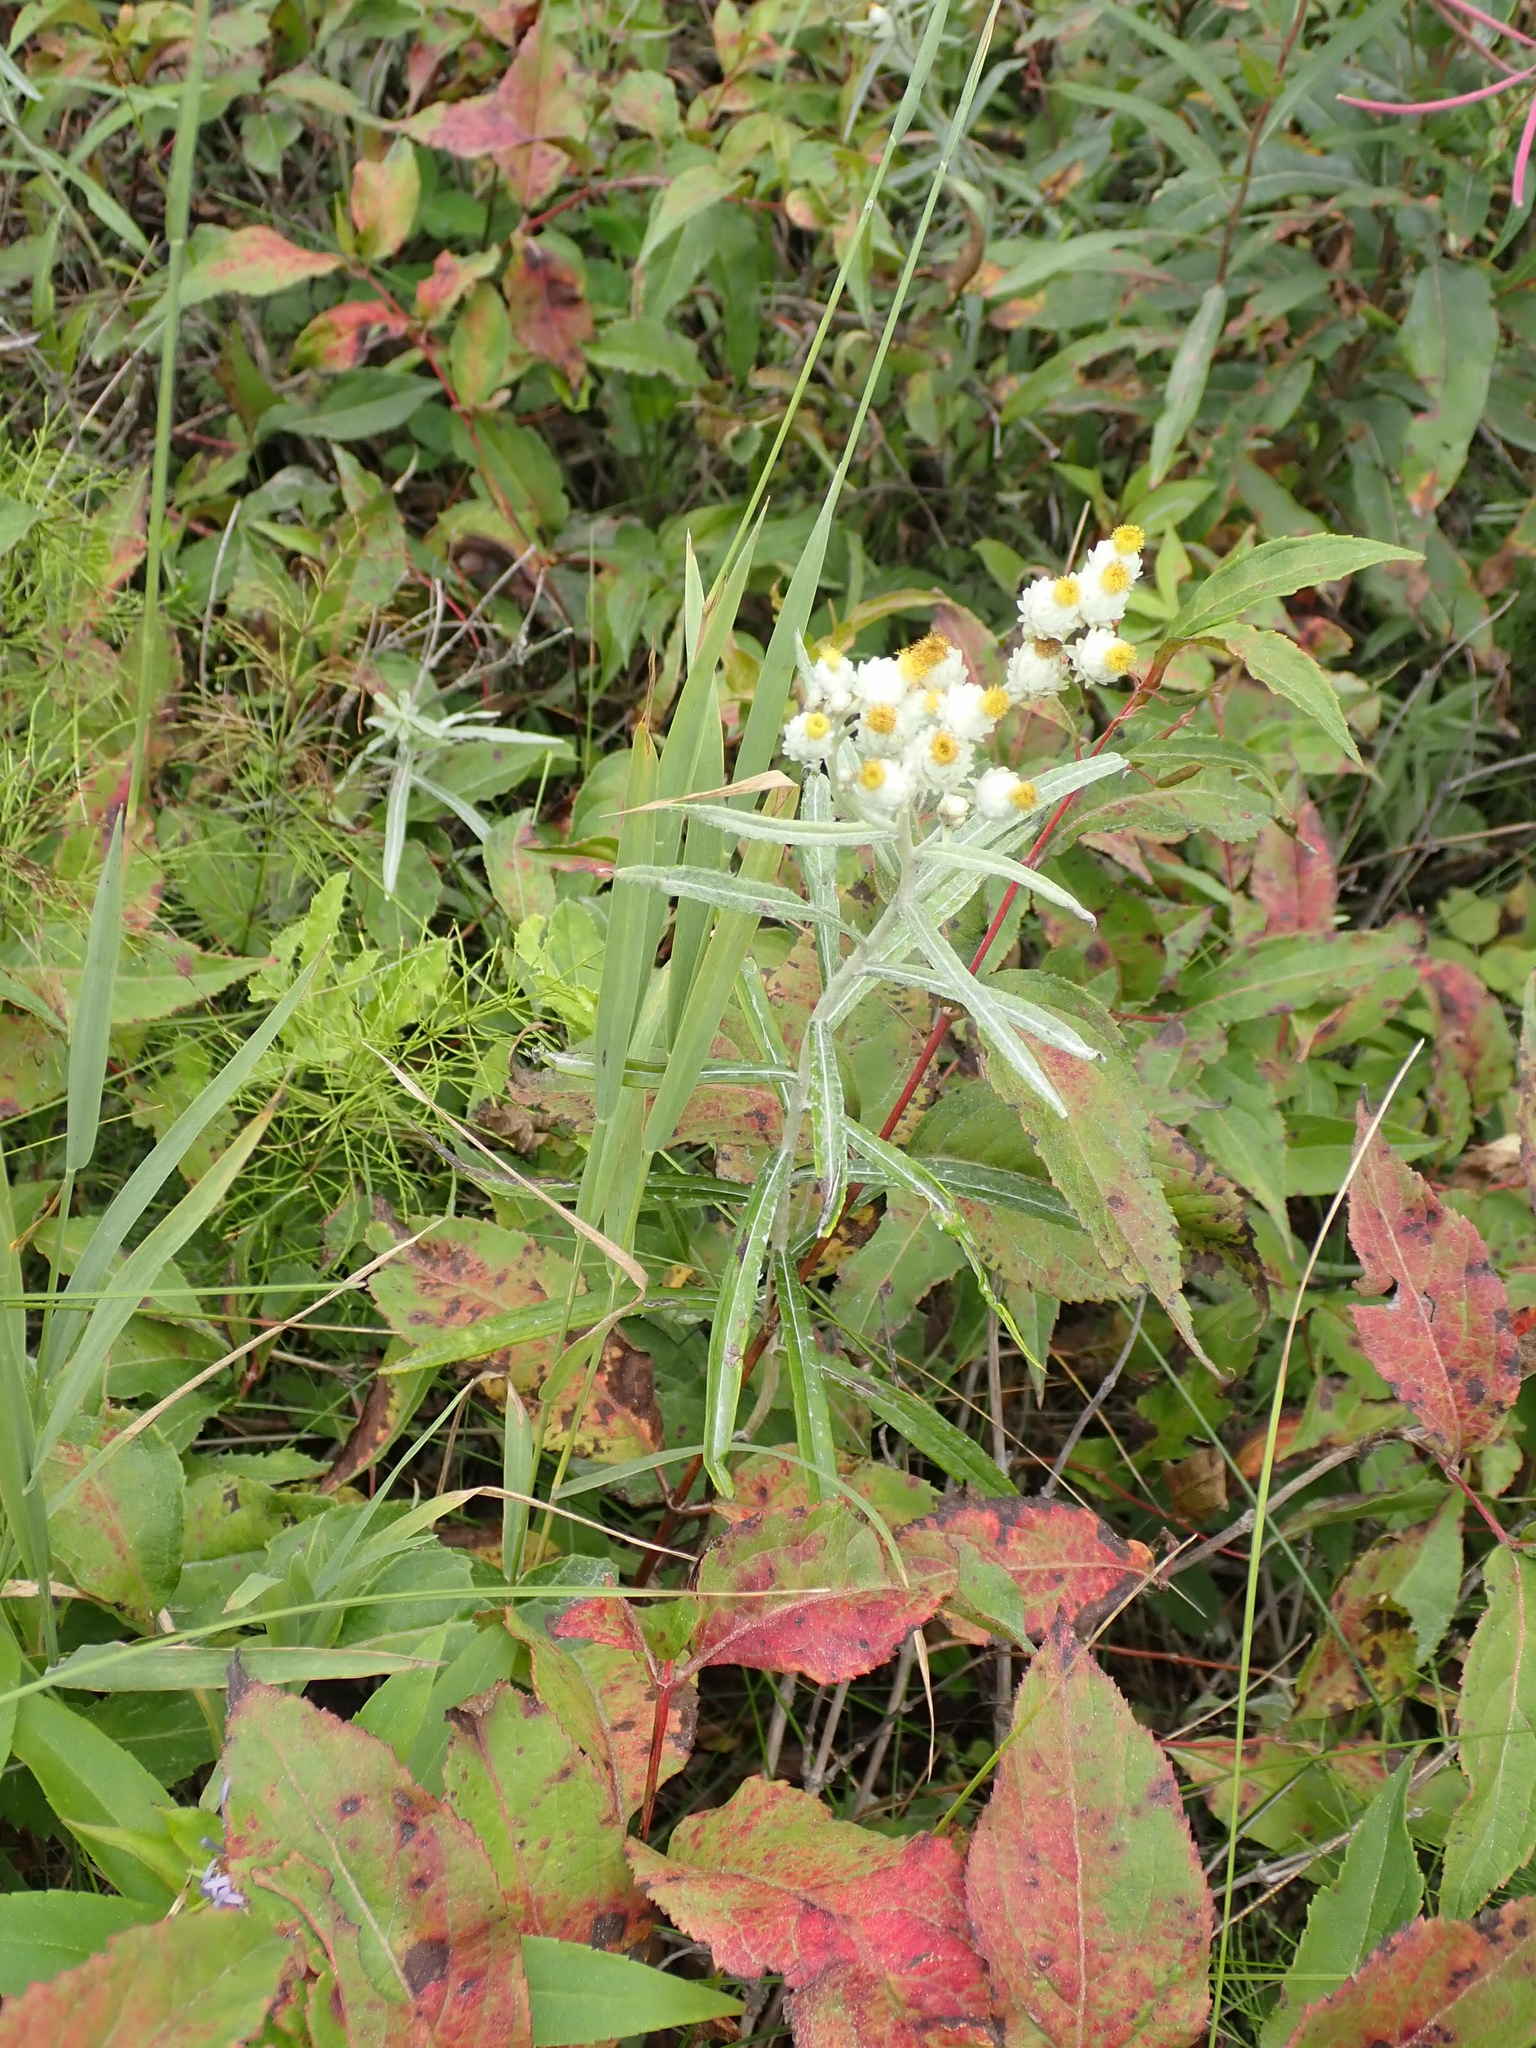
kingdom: Plantae
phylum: Tracheophyta
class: Magnoliopsida
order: Asterales
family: Asteraceae
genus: Anaphalis
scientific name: Anaphalis margaritacea
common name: Pearly everlasting
